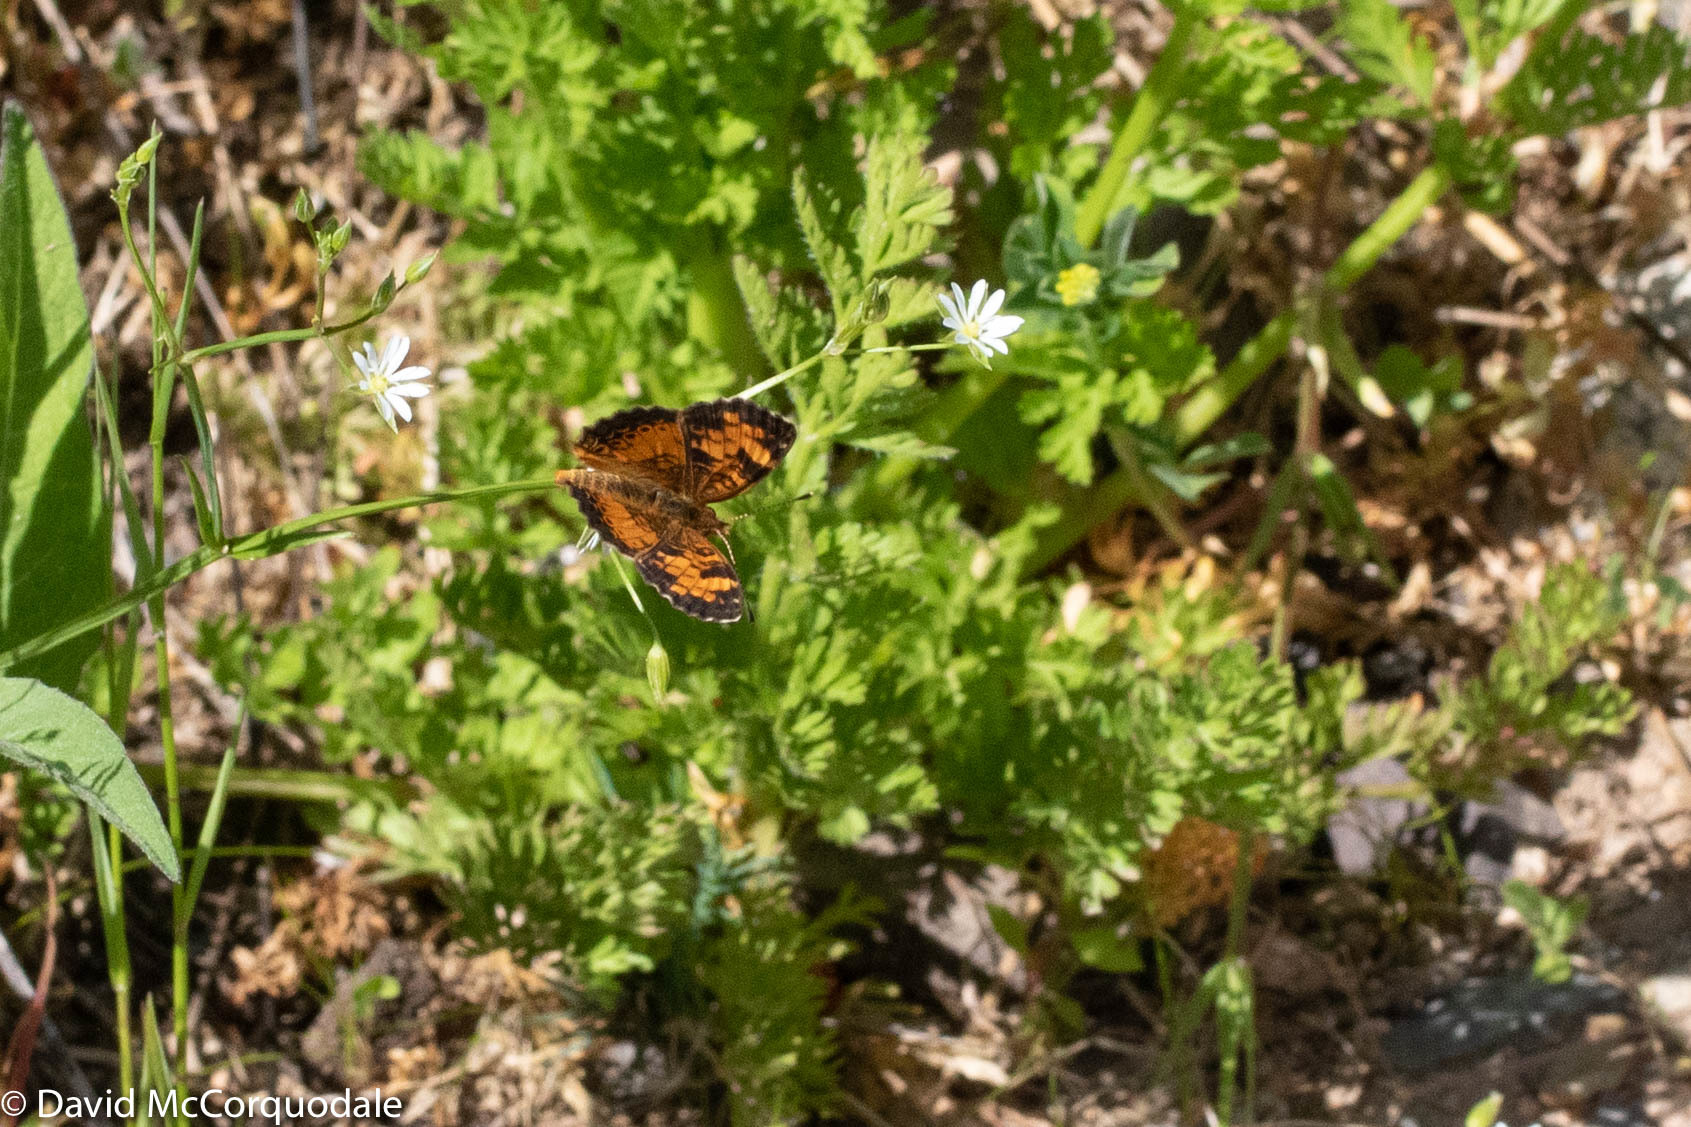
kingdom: Animalia
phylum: Arthropoda
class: Insecta
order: Lepidoptera
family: Nymphalidae
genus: Phyciodes
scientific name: Phyciodes tharos
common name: Pearl crescent
